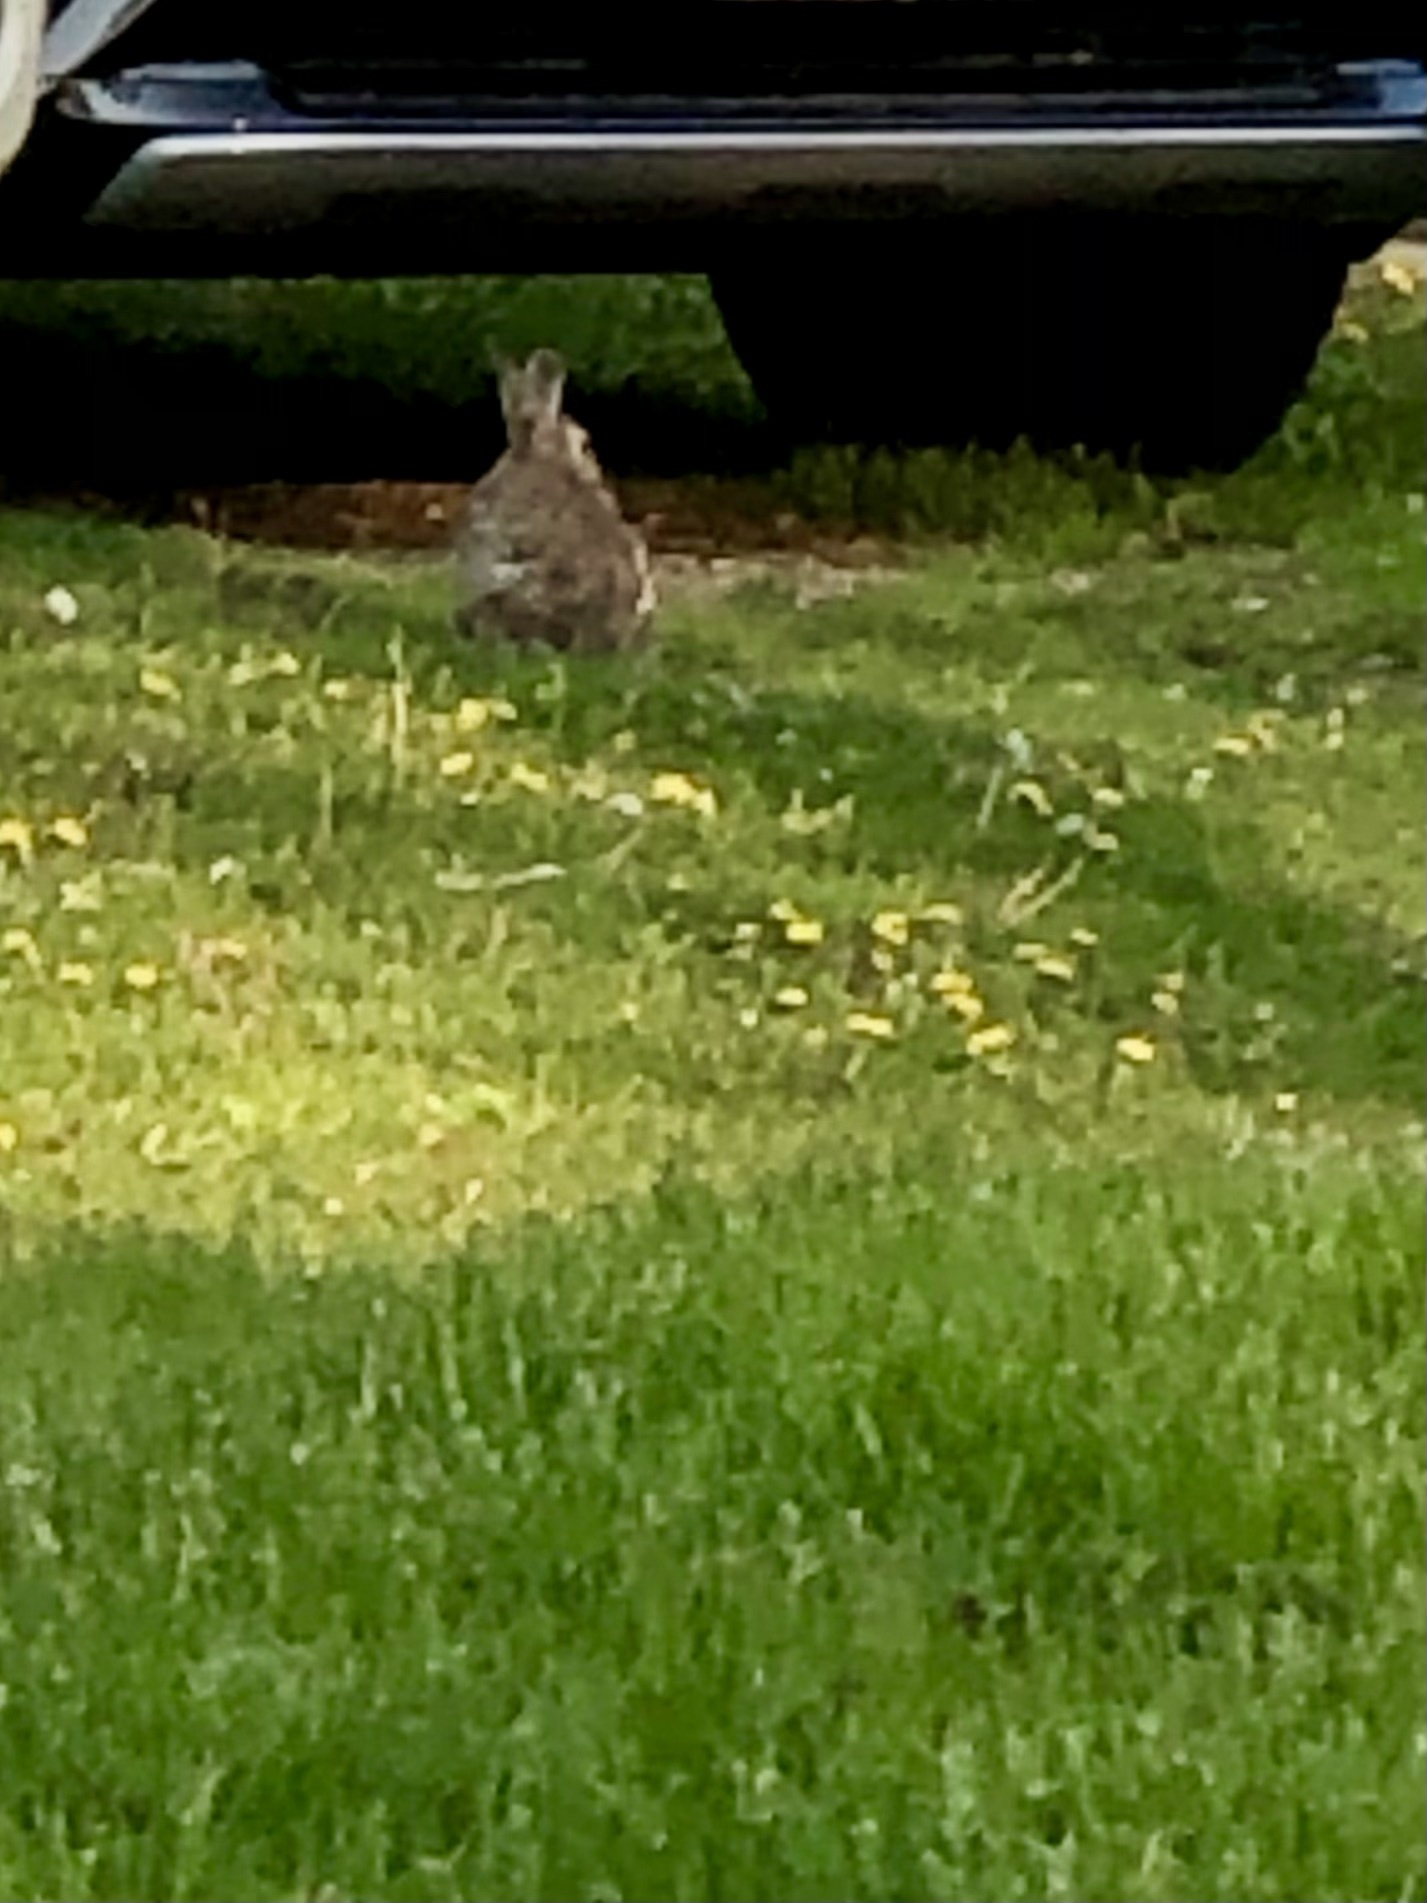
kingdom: Animalia
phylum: Chordata
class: Mammalia
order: Lagomorpha
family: Leporidae
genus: Sylvilagus
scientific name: Sylvilagus floridanus
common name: Eastern cottontail
